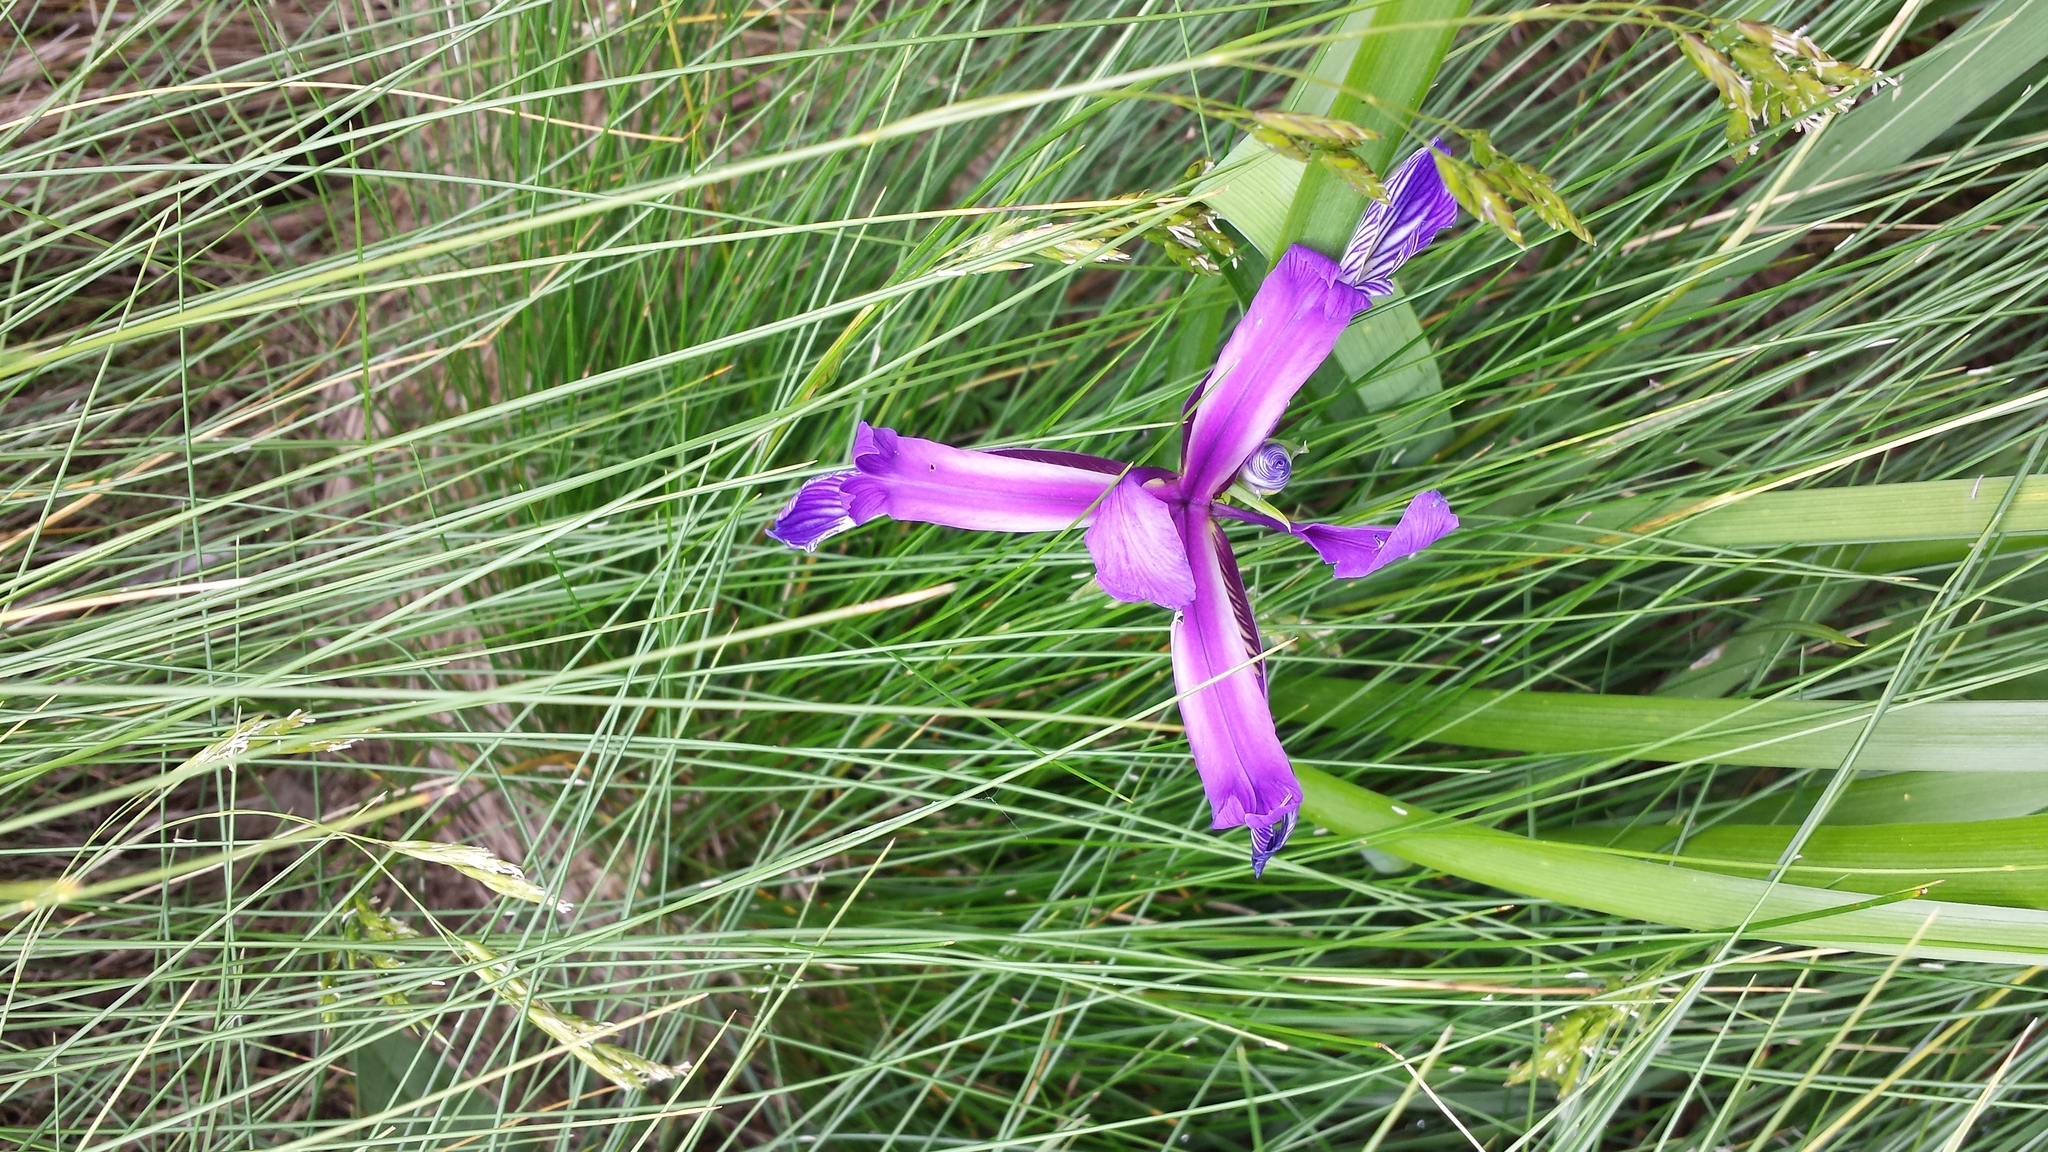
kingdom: Plantae
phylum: Tracheophyta
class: Liliopsida
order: Asparagales
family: Iridaceae
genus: Iris
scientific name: Iris graminea
